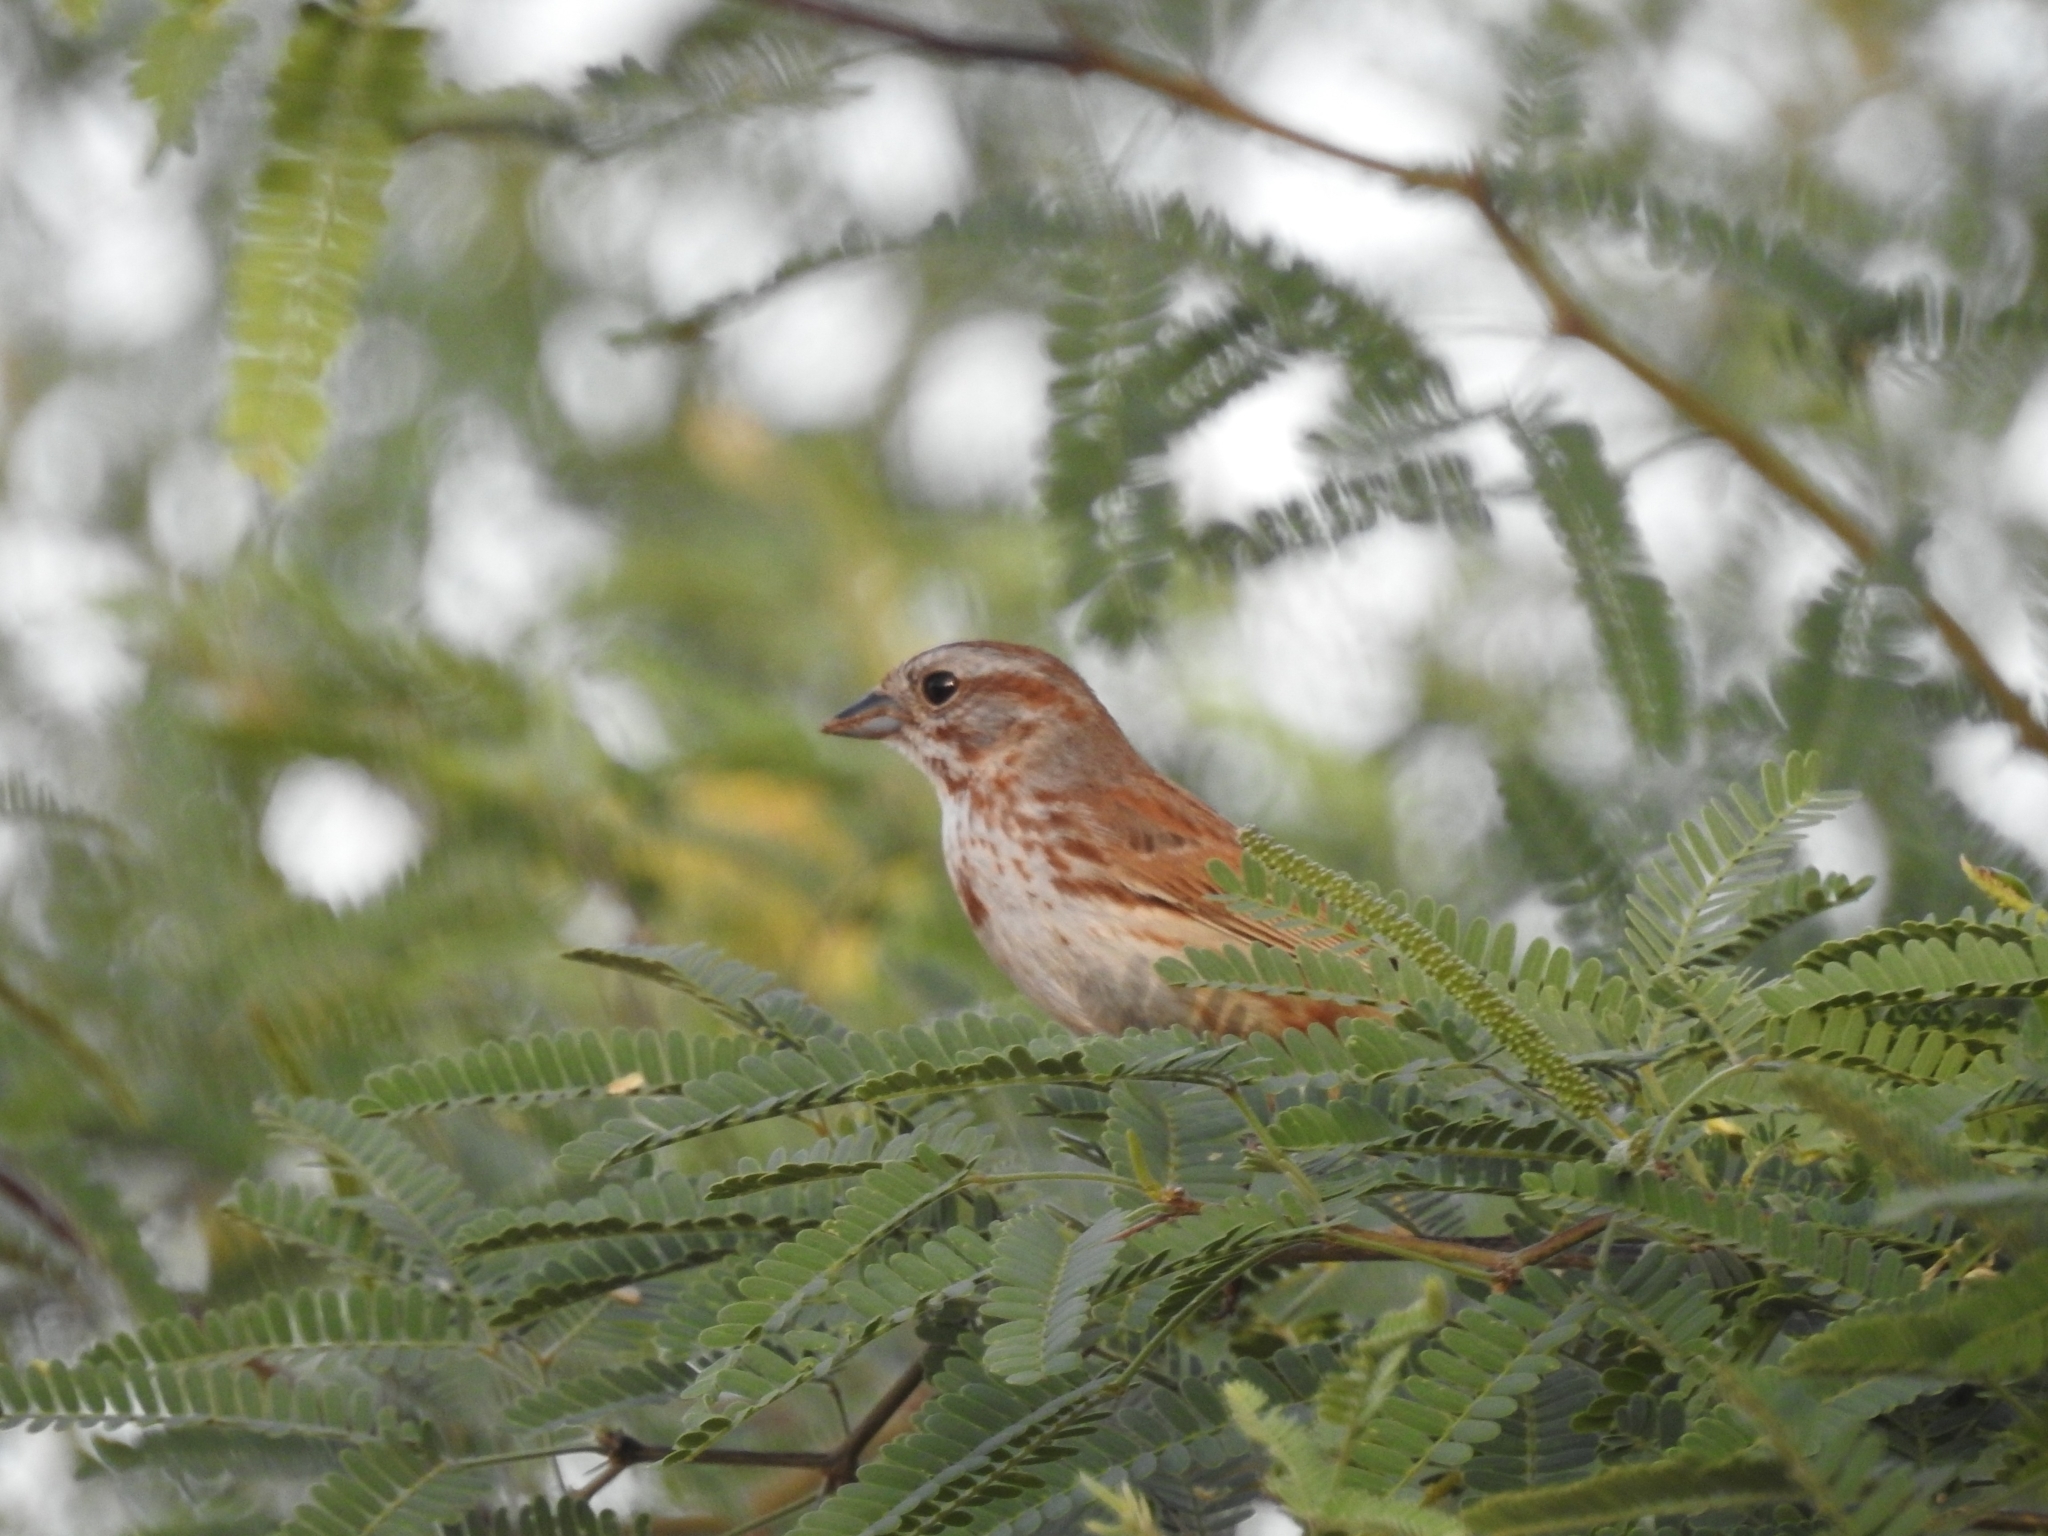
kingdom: Animalia
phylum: Chordata
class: Aves
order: Passeriformes
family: Passerellidae
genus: Melospiza
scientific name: Melospiza melodia
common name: Song sparrow
